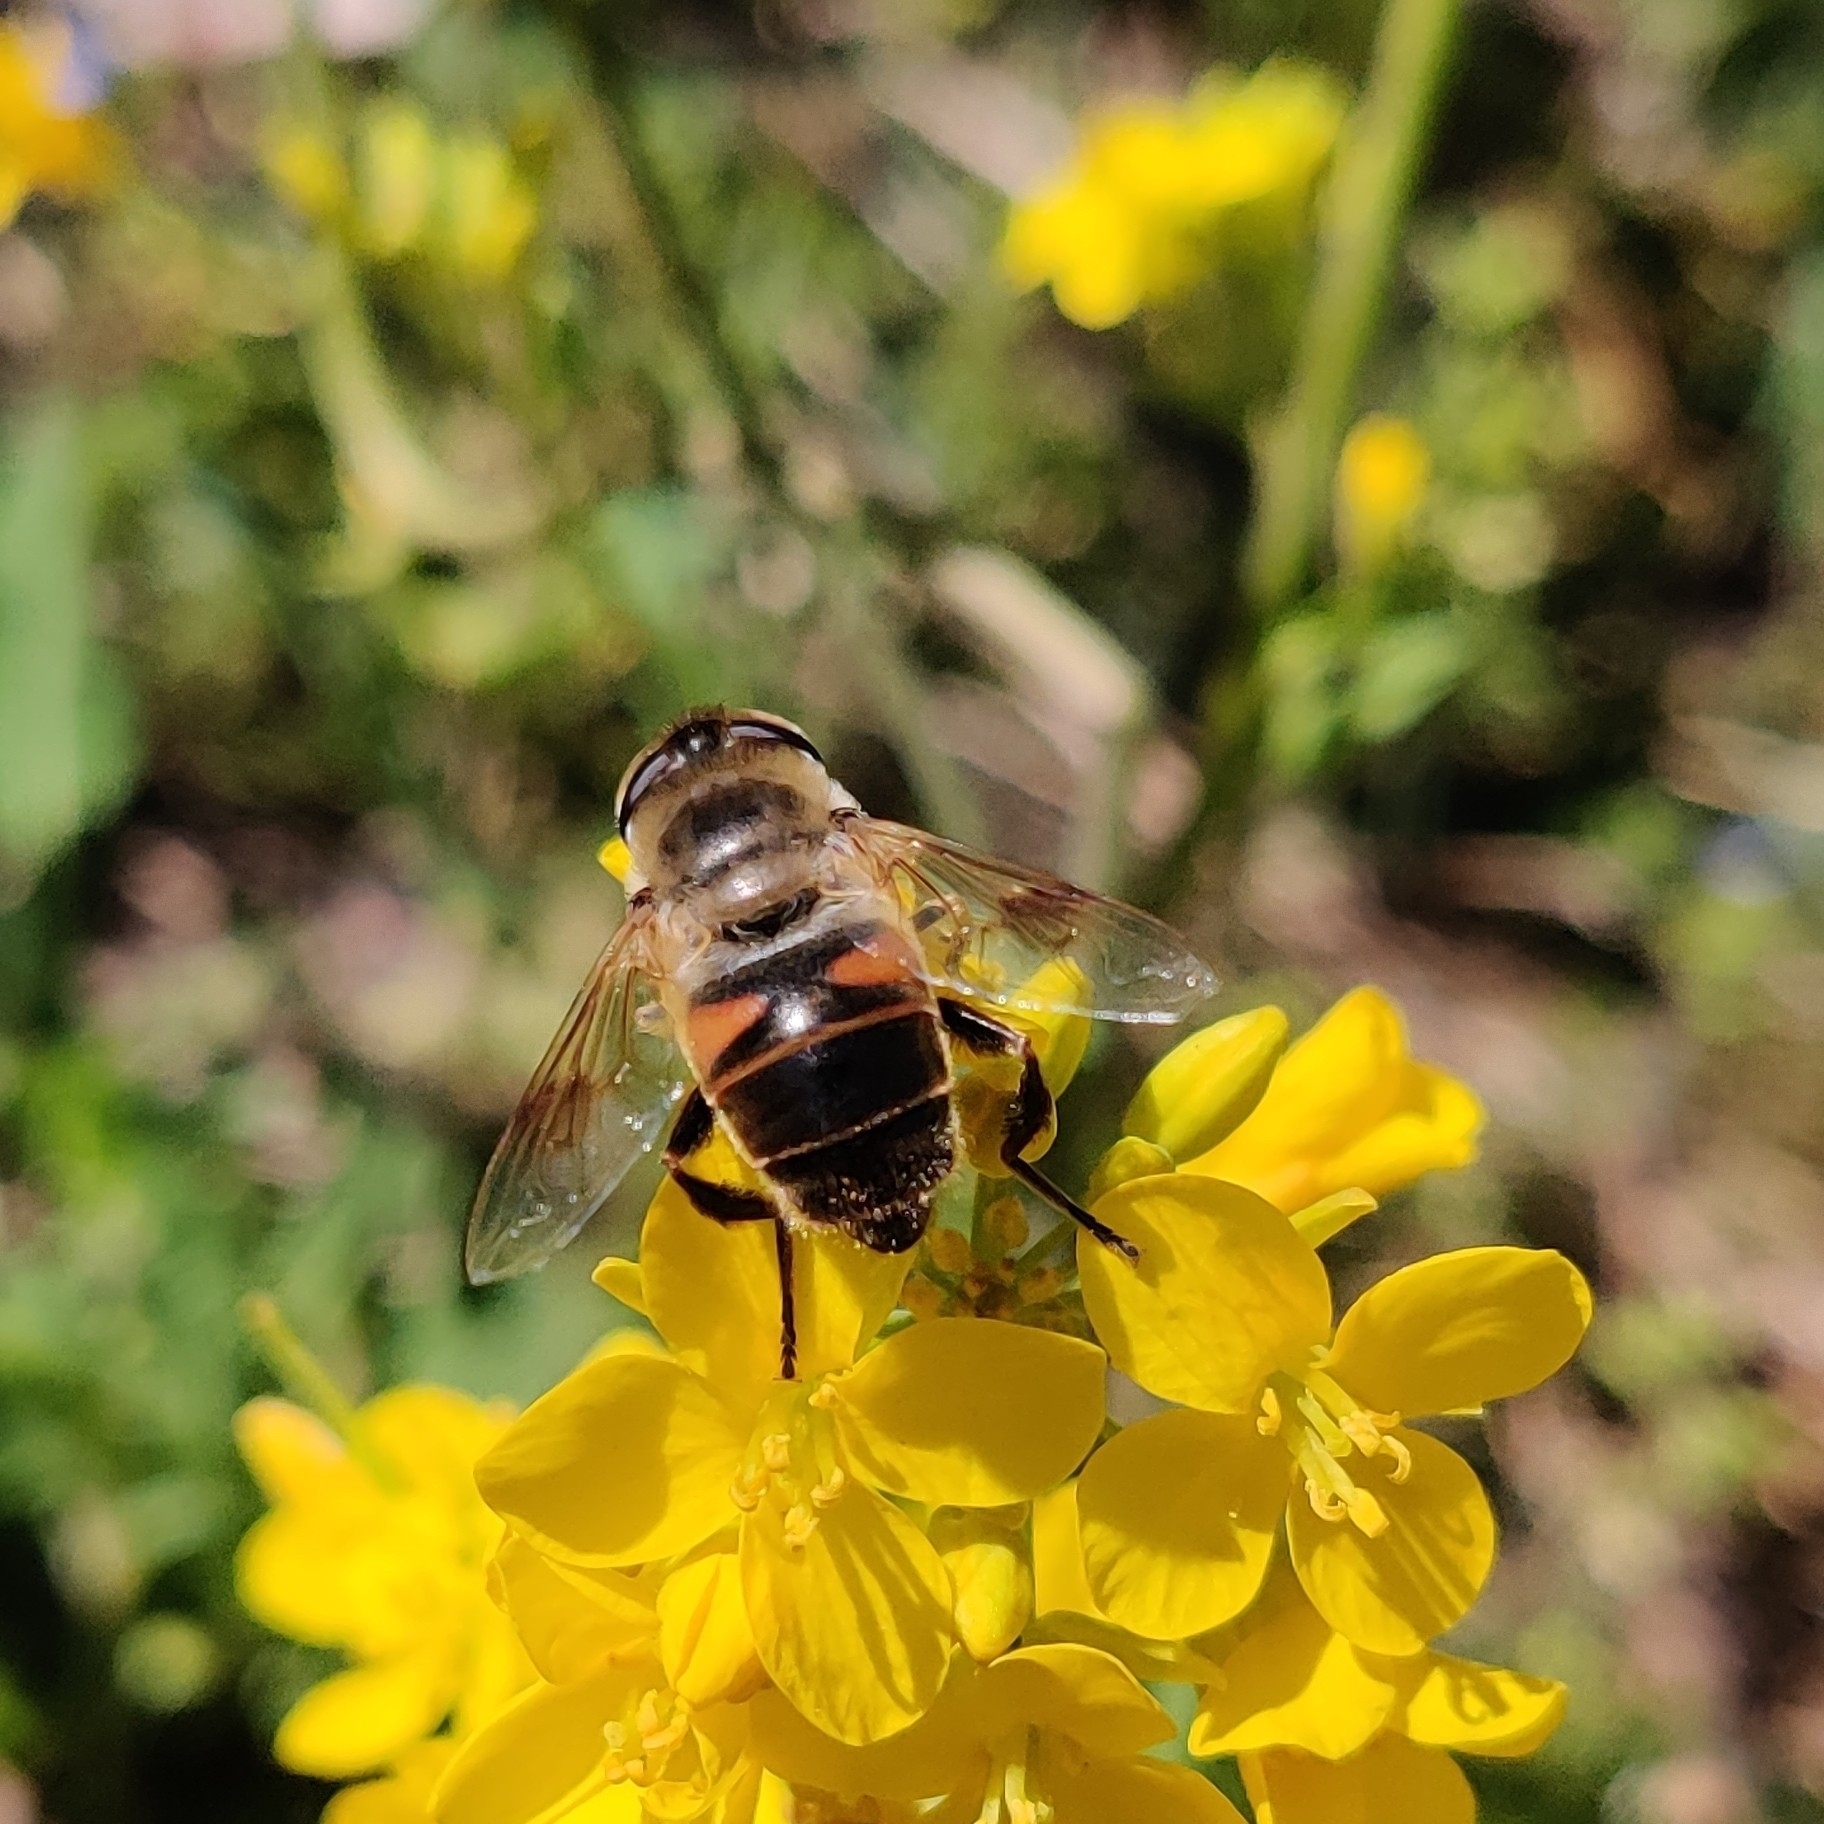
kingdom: Animalia
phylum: Arthropoda
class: Insecta
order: Diptera
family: Syrphidae
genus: Eristalis
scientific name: Eristalis tenax
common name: Drone fly
